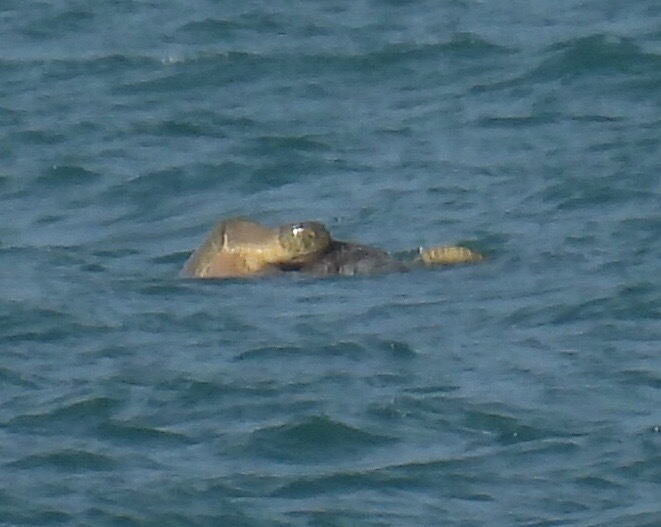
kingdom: Animalia
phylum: Chordata
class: Testudines
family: Cheloniidae
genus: Chelonia
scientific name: Chelonia mydas
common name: Green turtle
